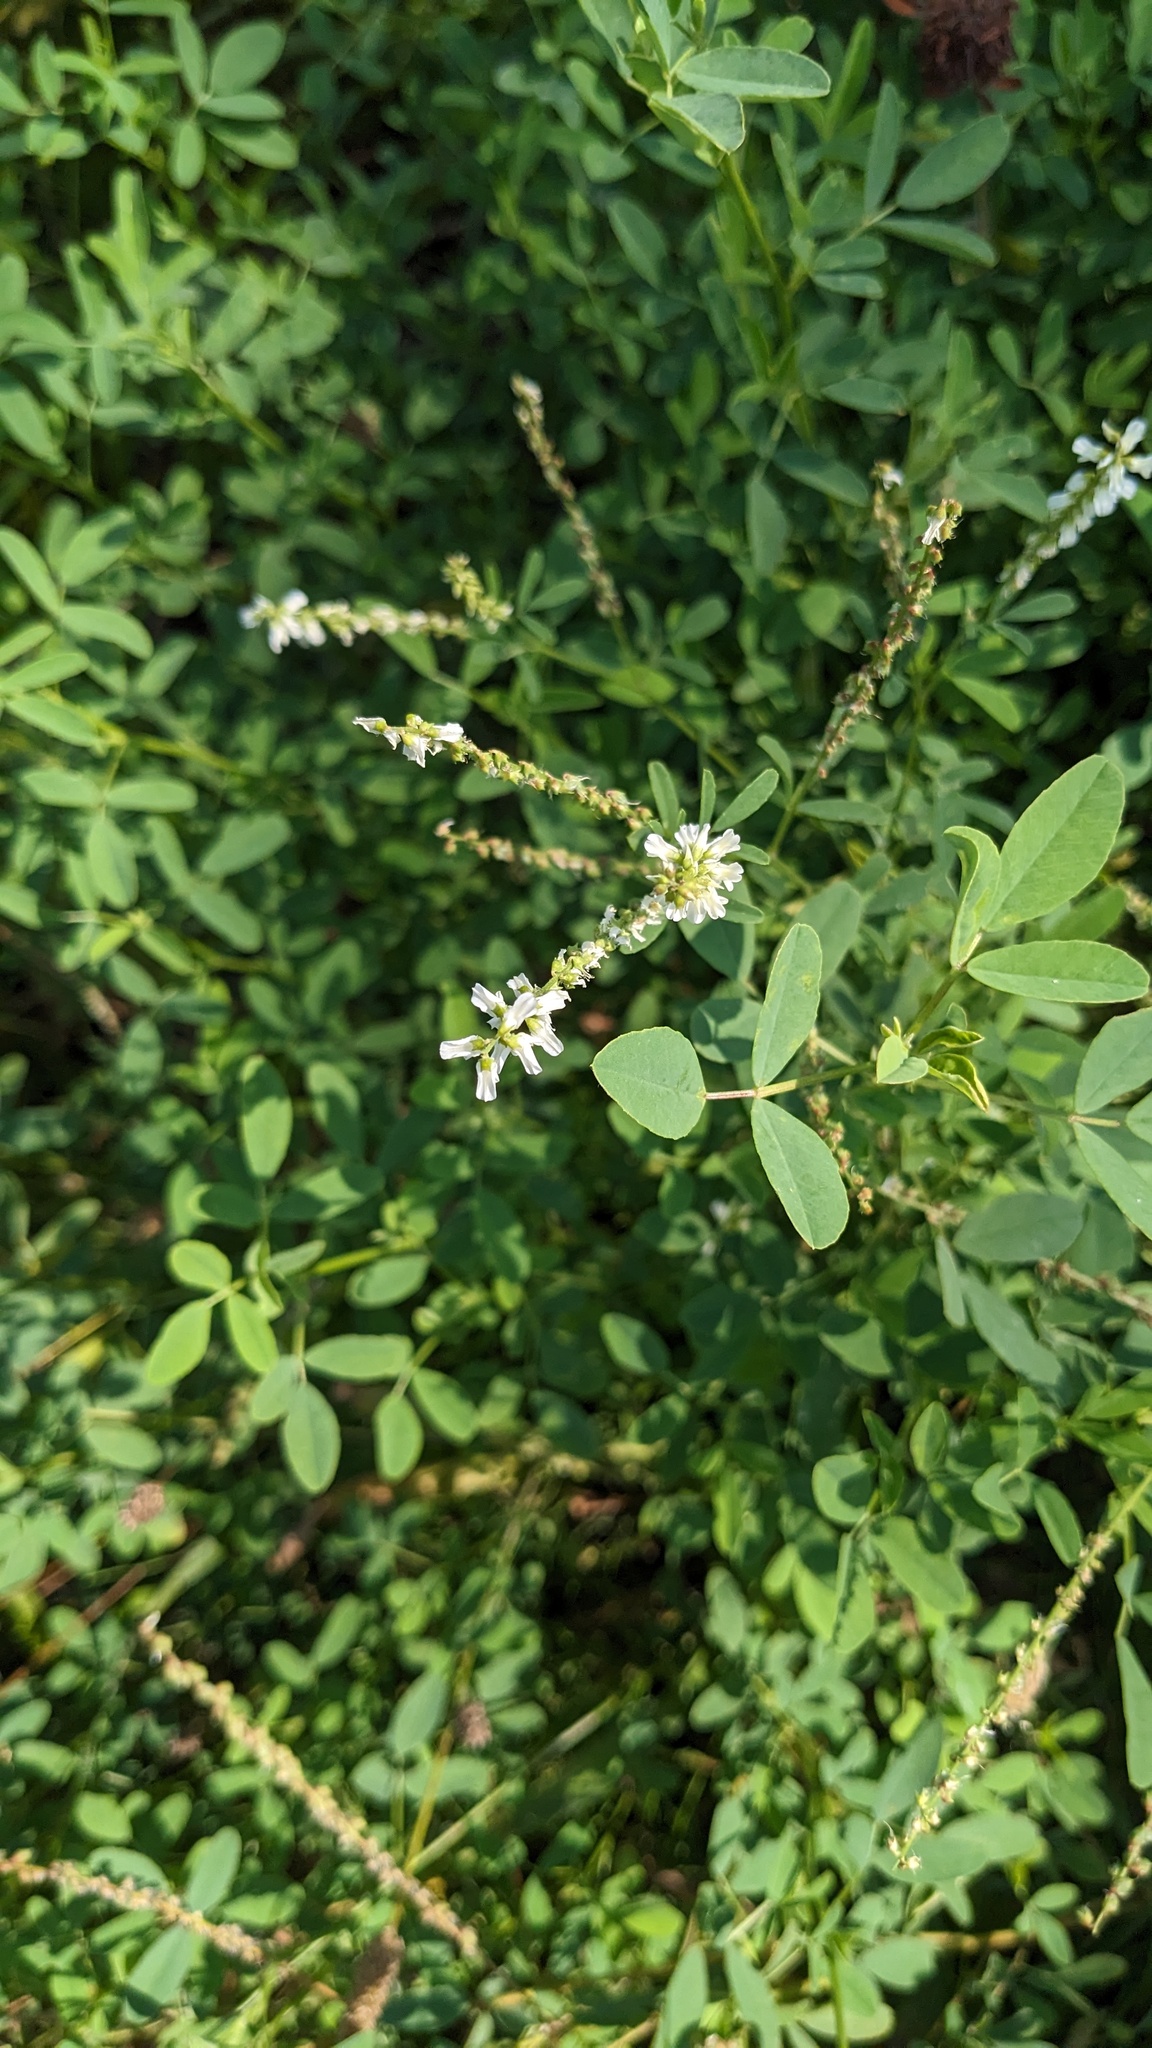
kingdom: Plantae
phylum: Tracheophyta
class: Magnoliopsida
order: Fabales
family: Fabaceae
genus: Melilotus
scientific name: Melilotus albus
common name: White melilot
